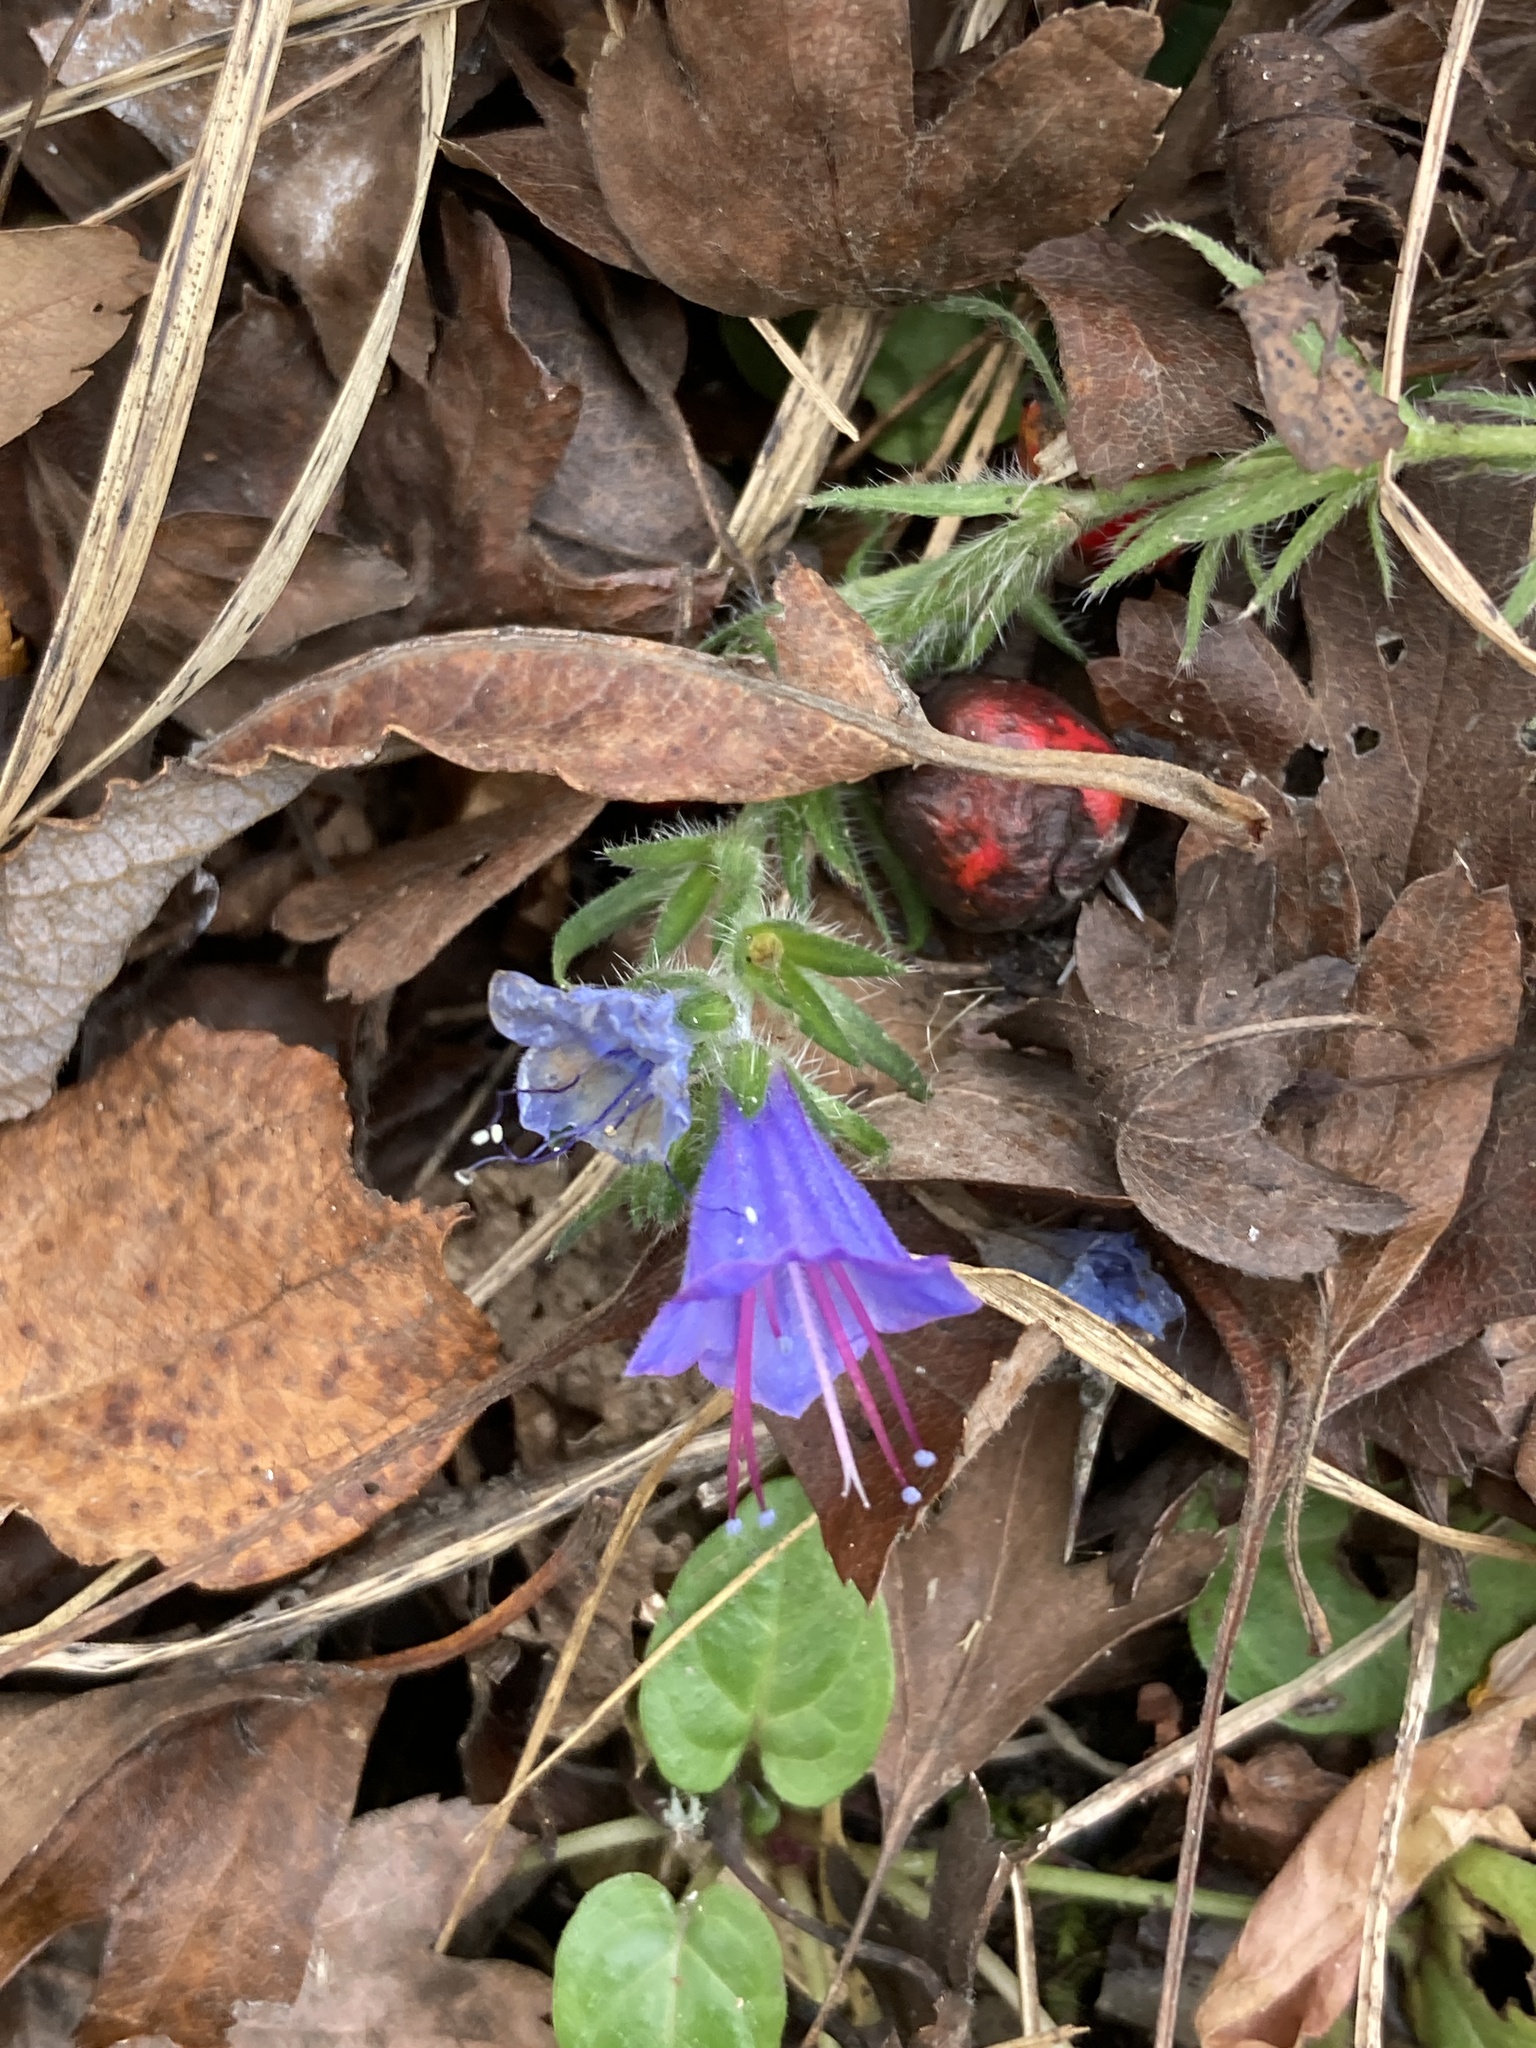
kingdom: Plantae
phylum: Tracheophyta
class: Magnoliopsida
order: Boraginales
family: Boraginaceae
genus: Echium
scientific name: Echium vulgare
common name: Common viper's bugloss
